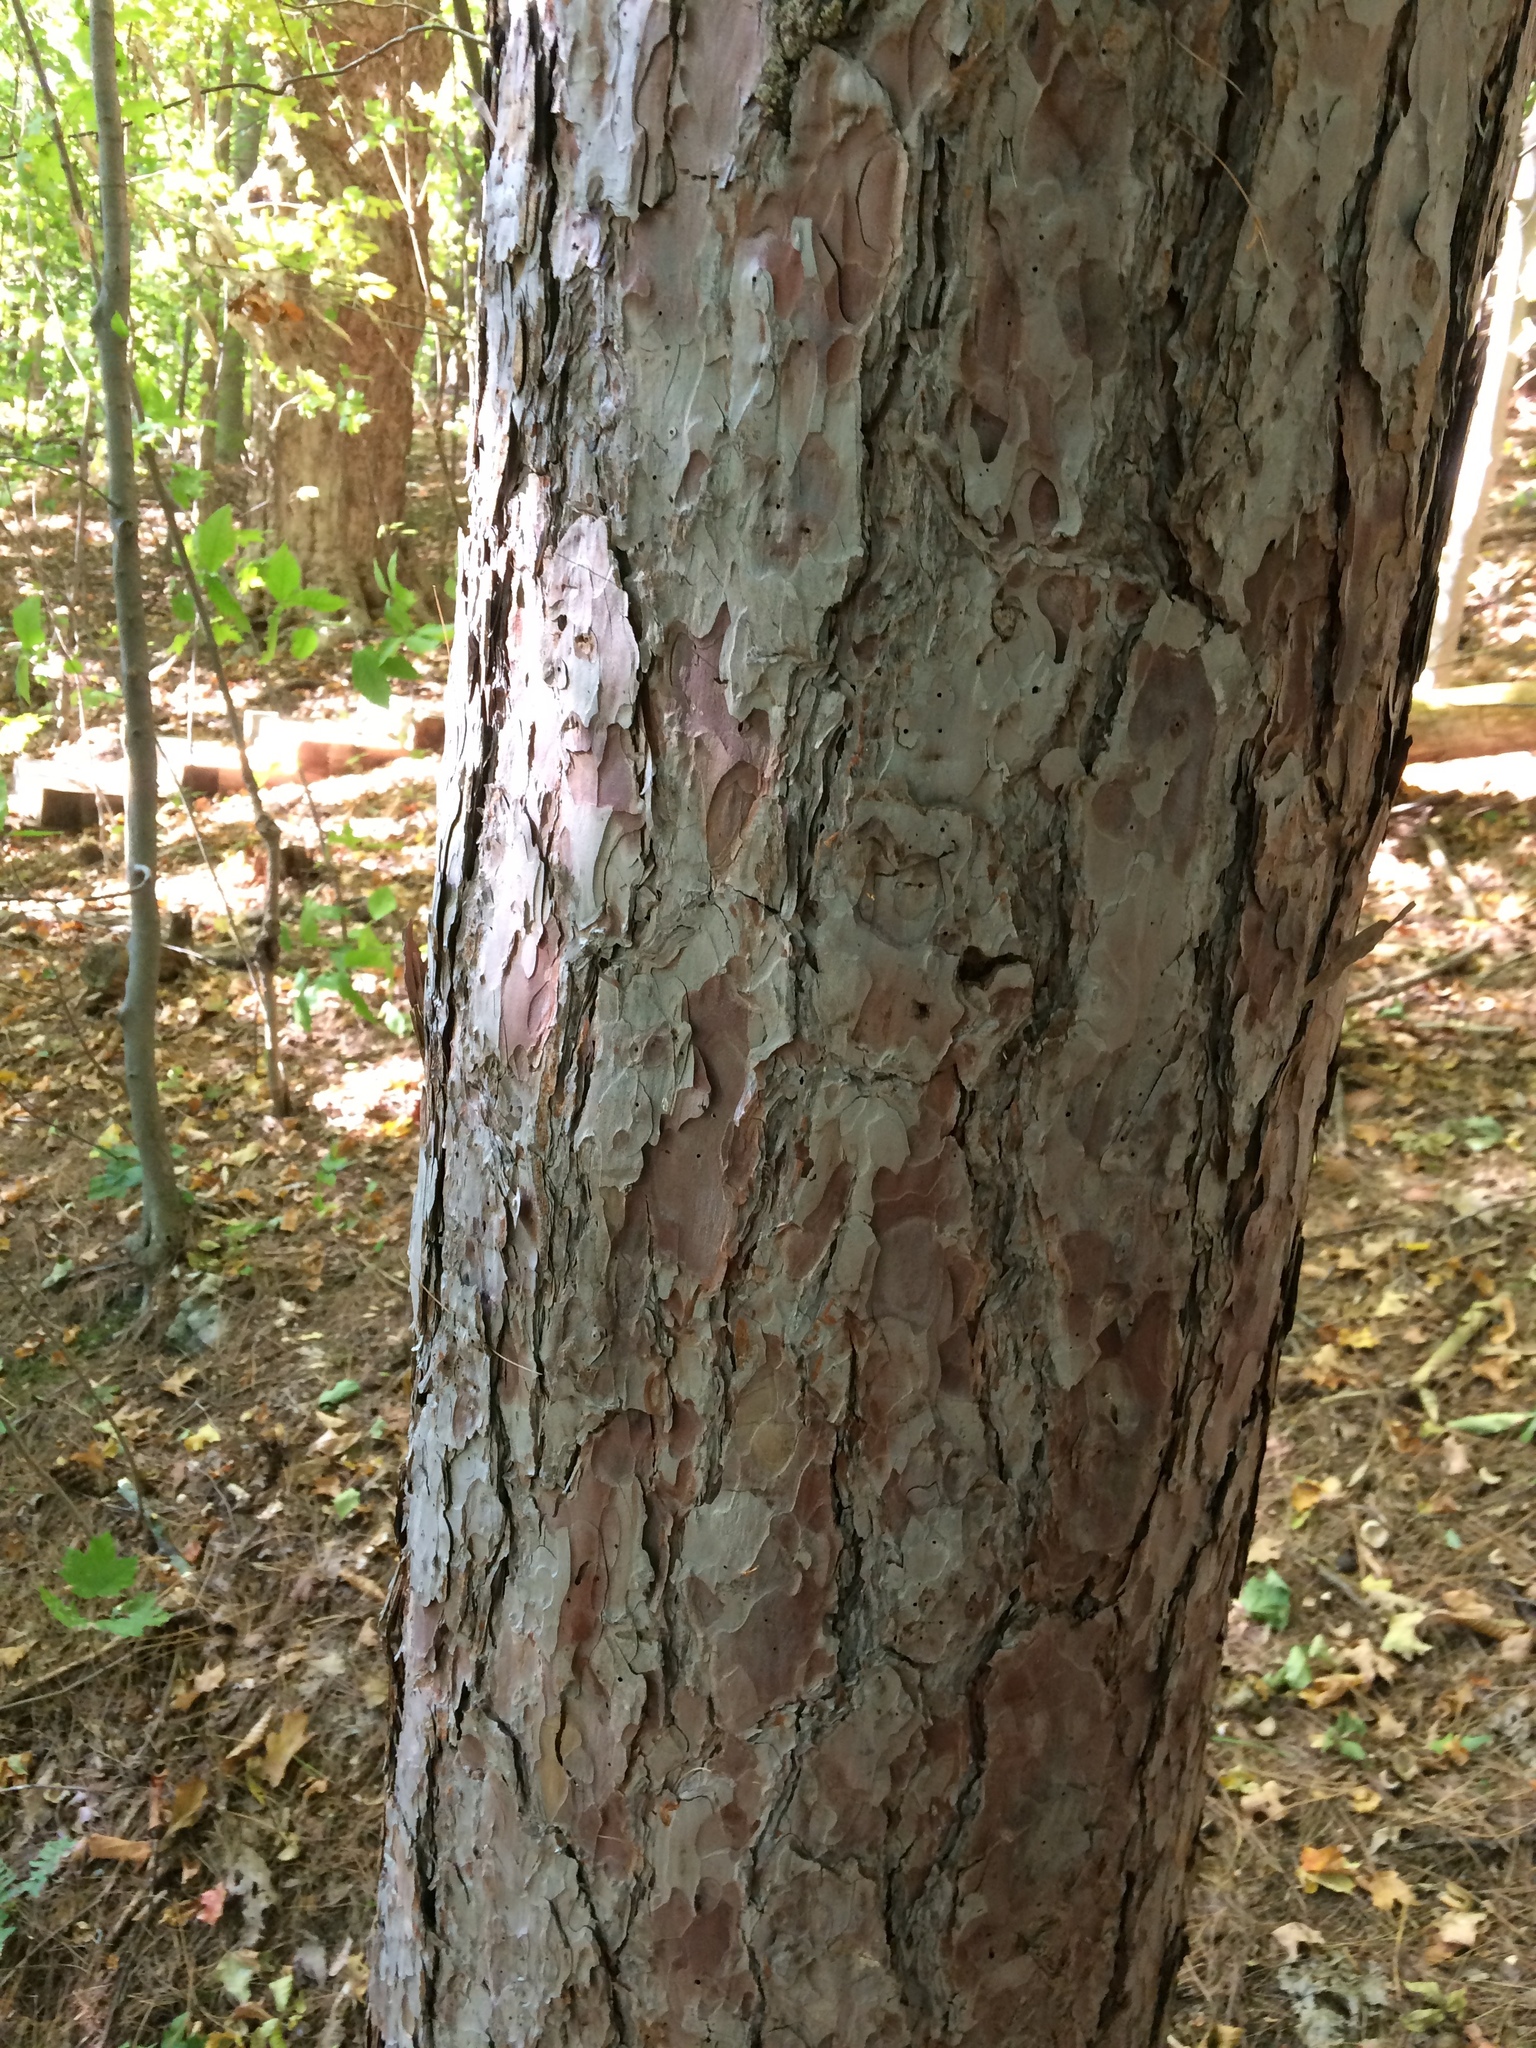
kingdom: Plantae
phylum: Tracheophyta
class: Pinopsida
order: Pinales
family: Pinaceae
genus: Pinus
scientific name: Pinus resinosa
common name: Norway pine
